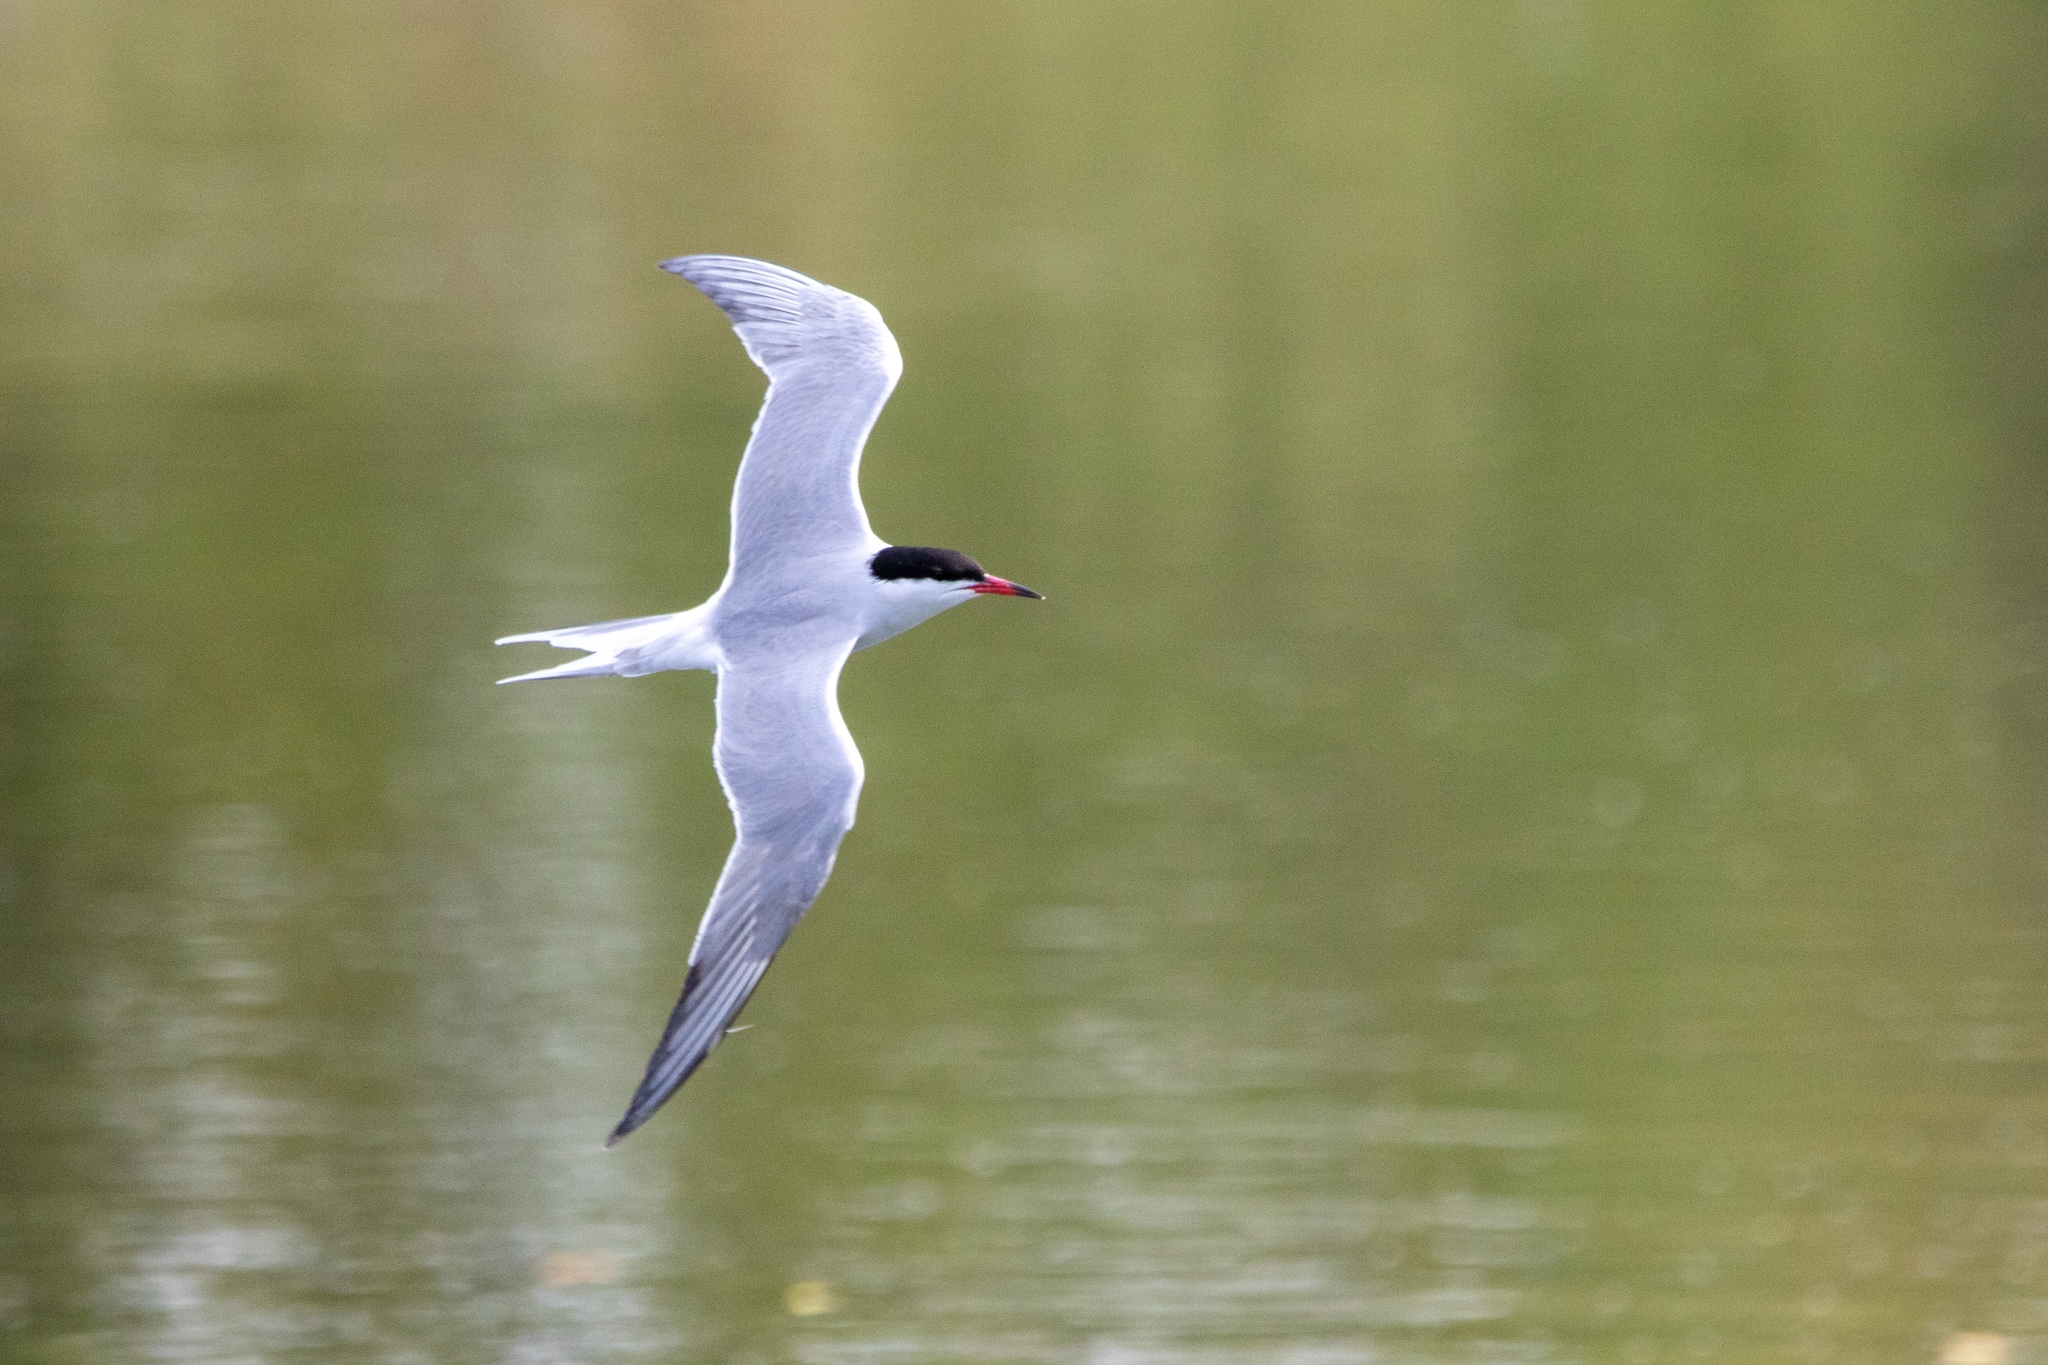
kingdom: Animalia
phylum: Chordata
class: Aves
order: Charadriiformes
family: Laridae
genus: Sterna
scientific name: Sterna hirundo
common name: Common tern
